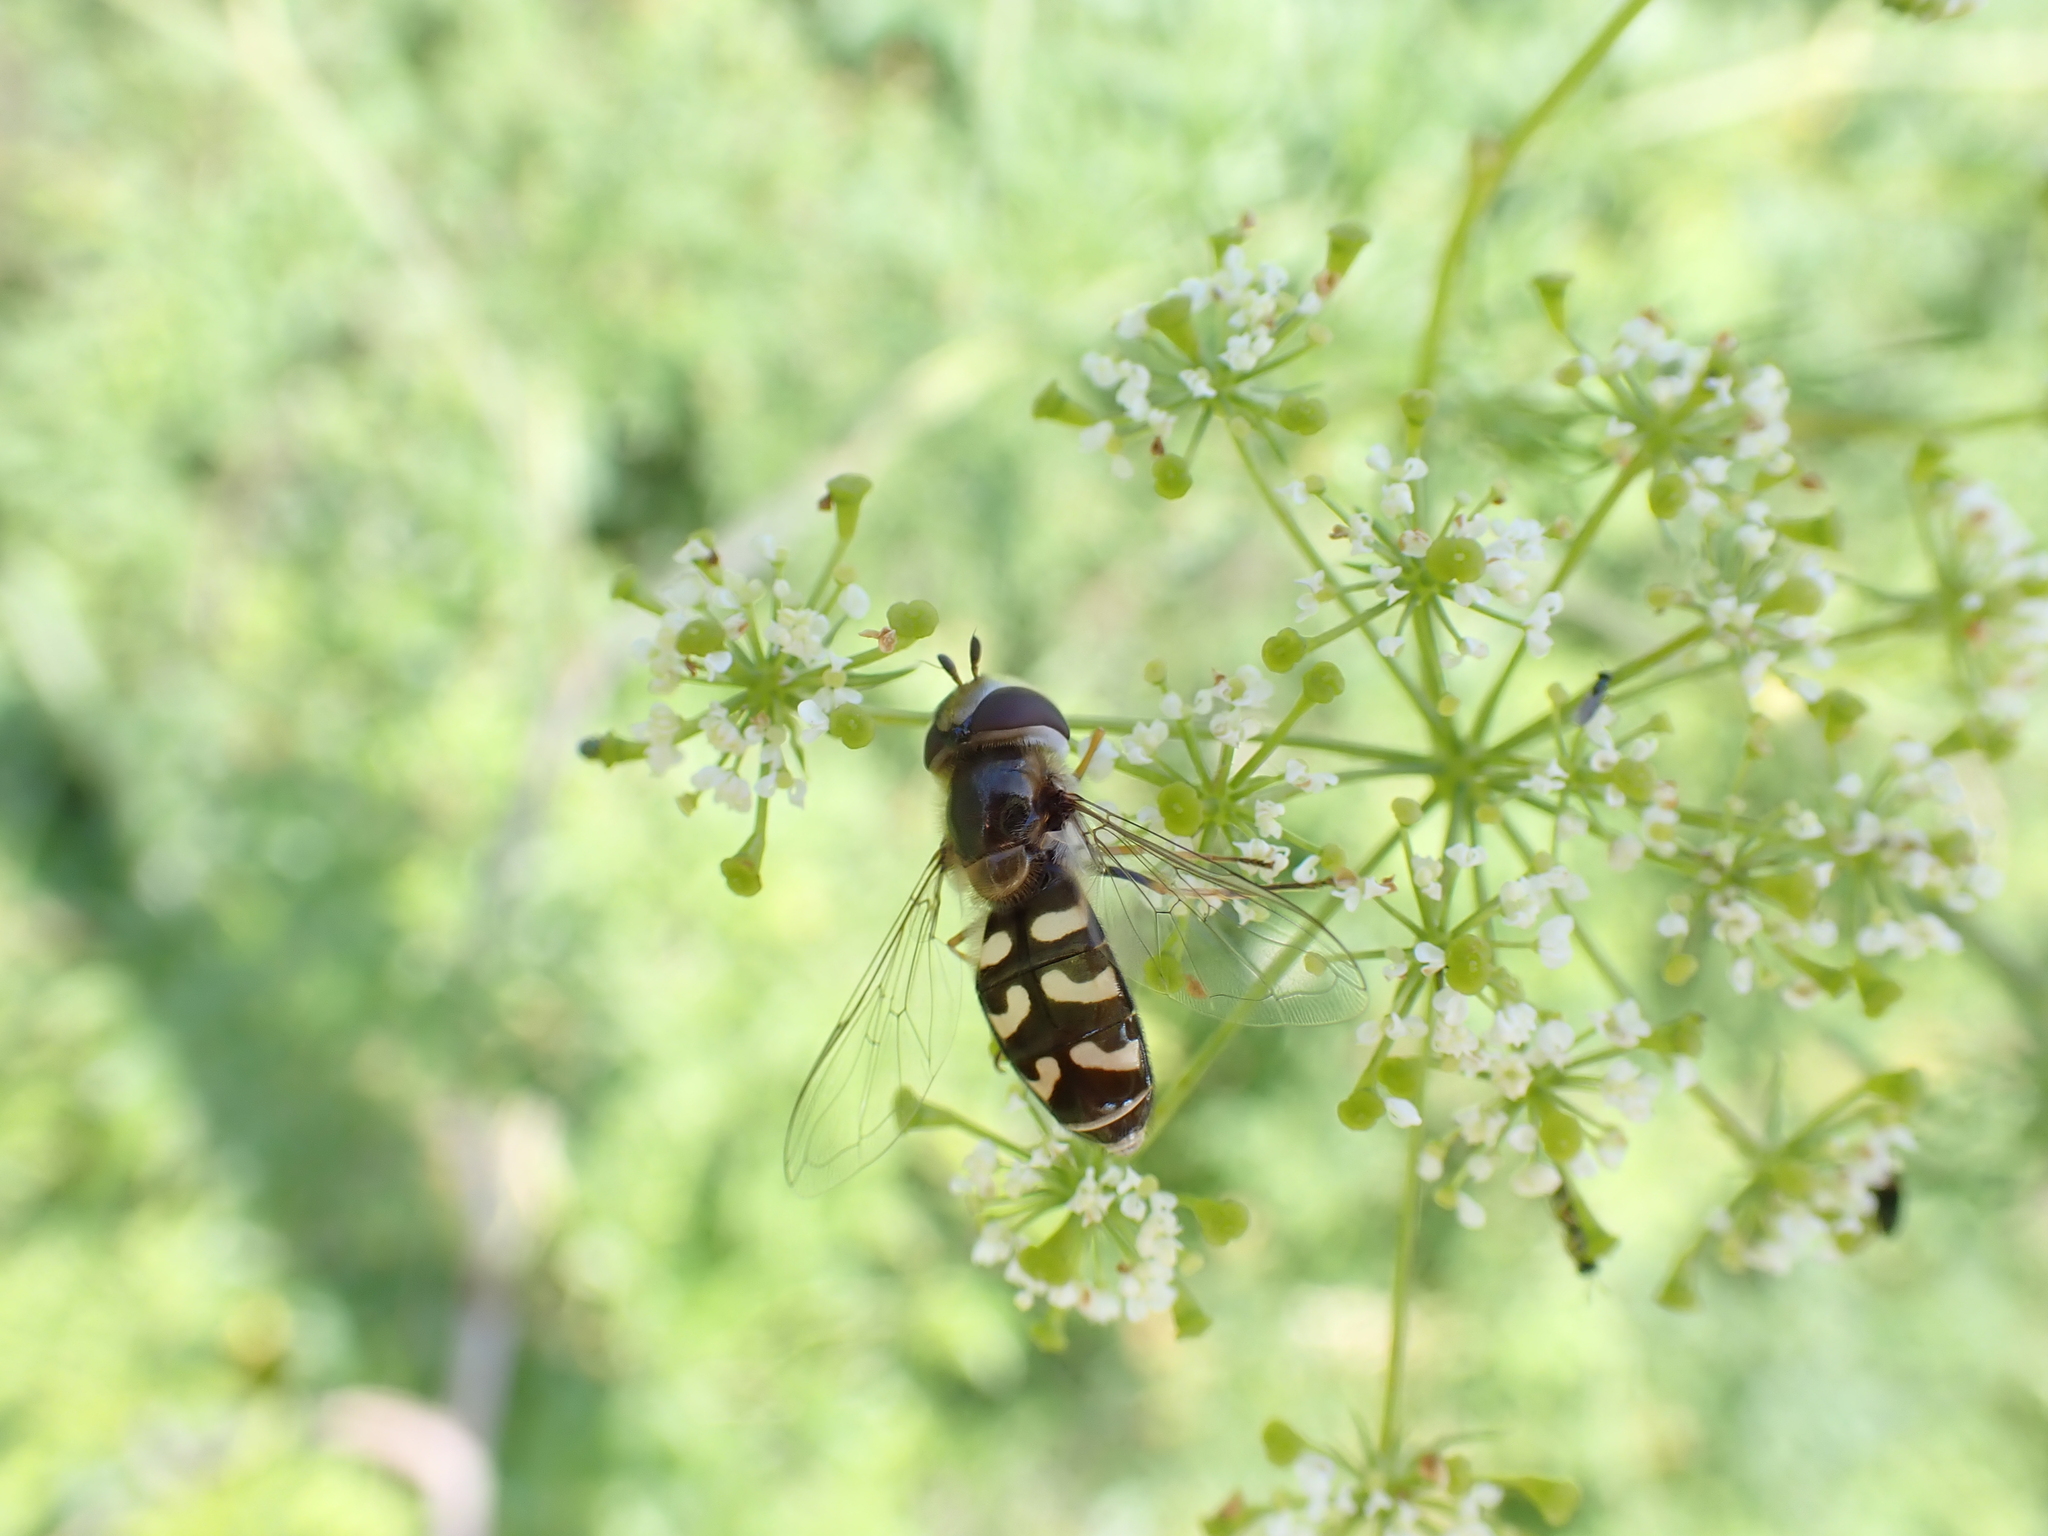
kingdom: Animalia
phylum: Arthropoda
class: Insecta
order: Diptera
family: Syrphidae
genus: Scaeva
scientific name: Scaeva pyrastri
